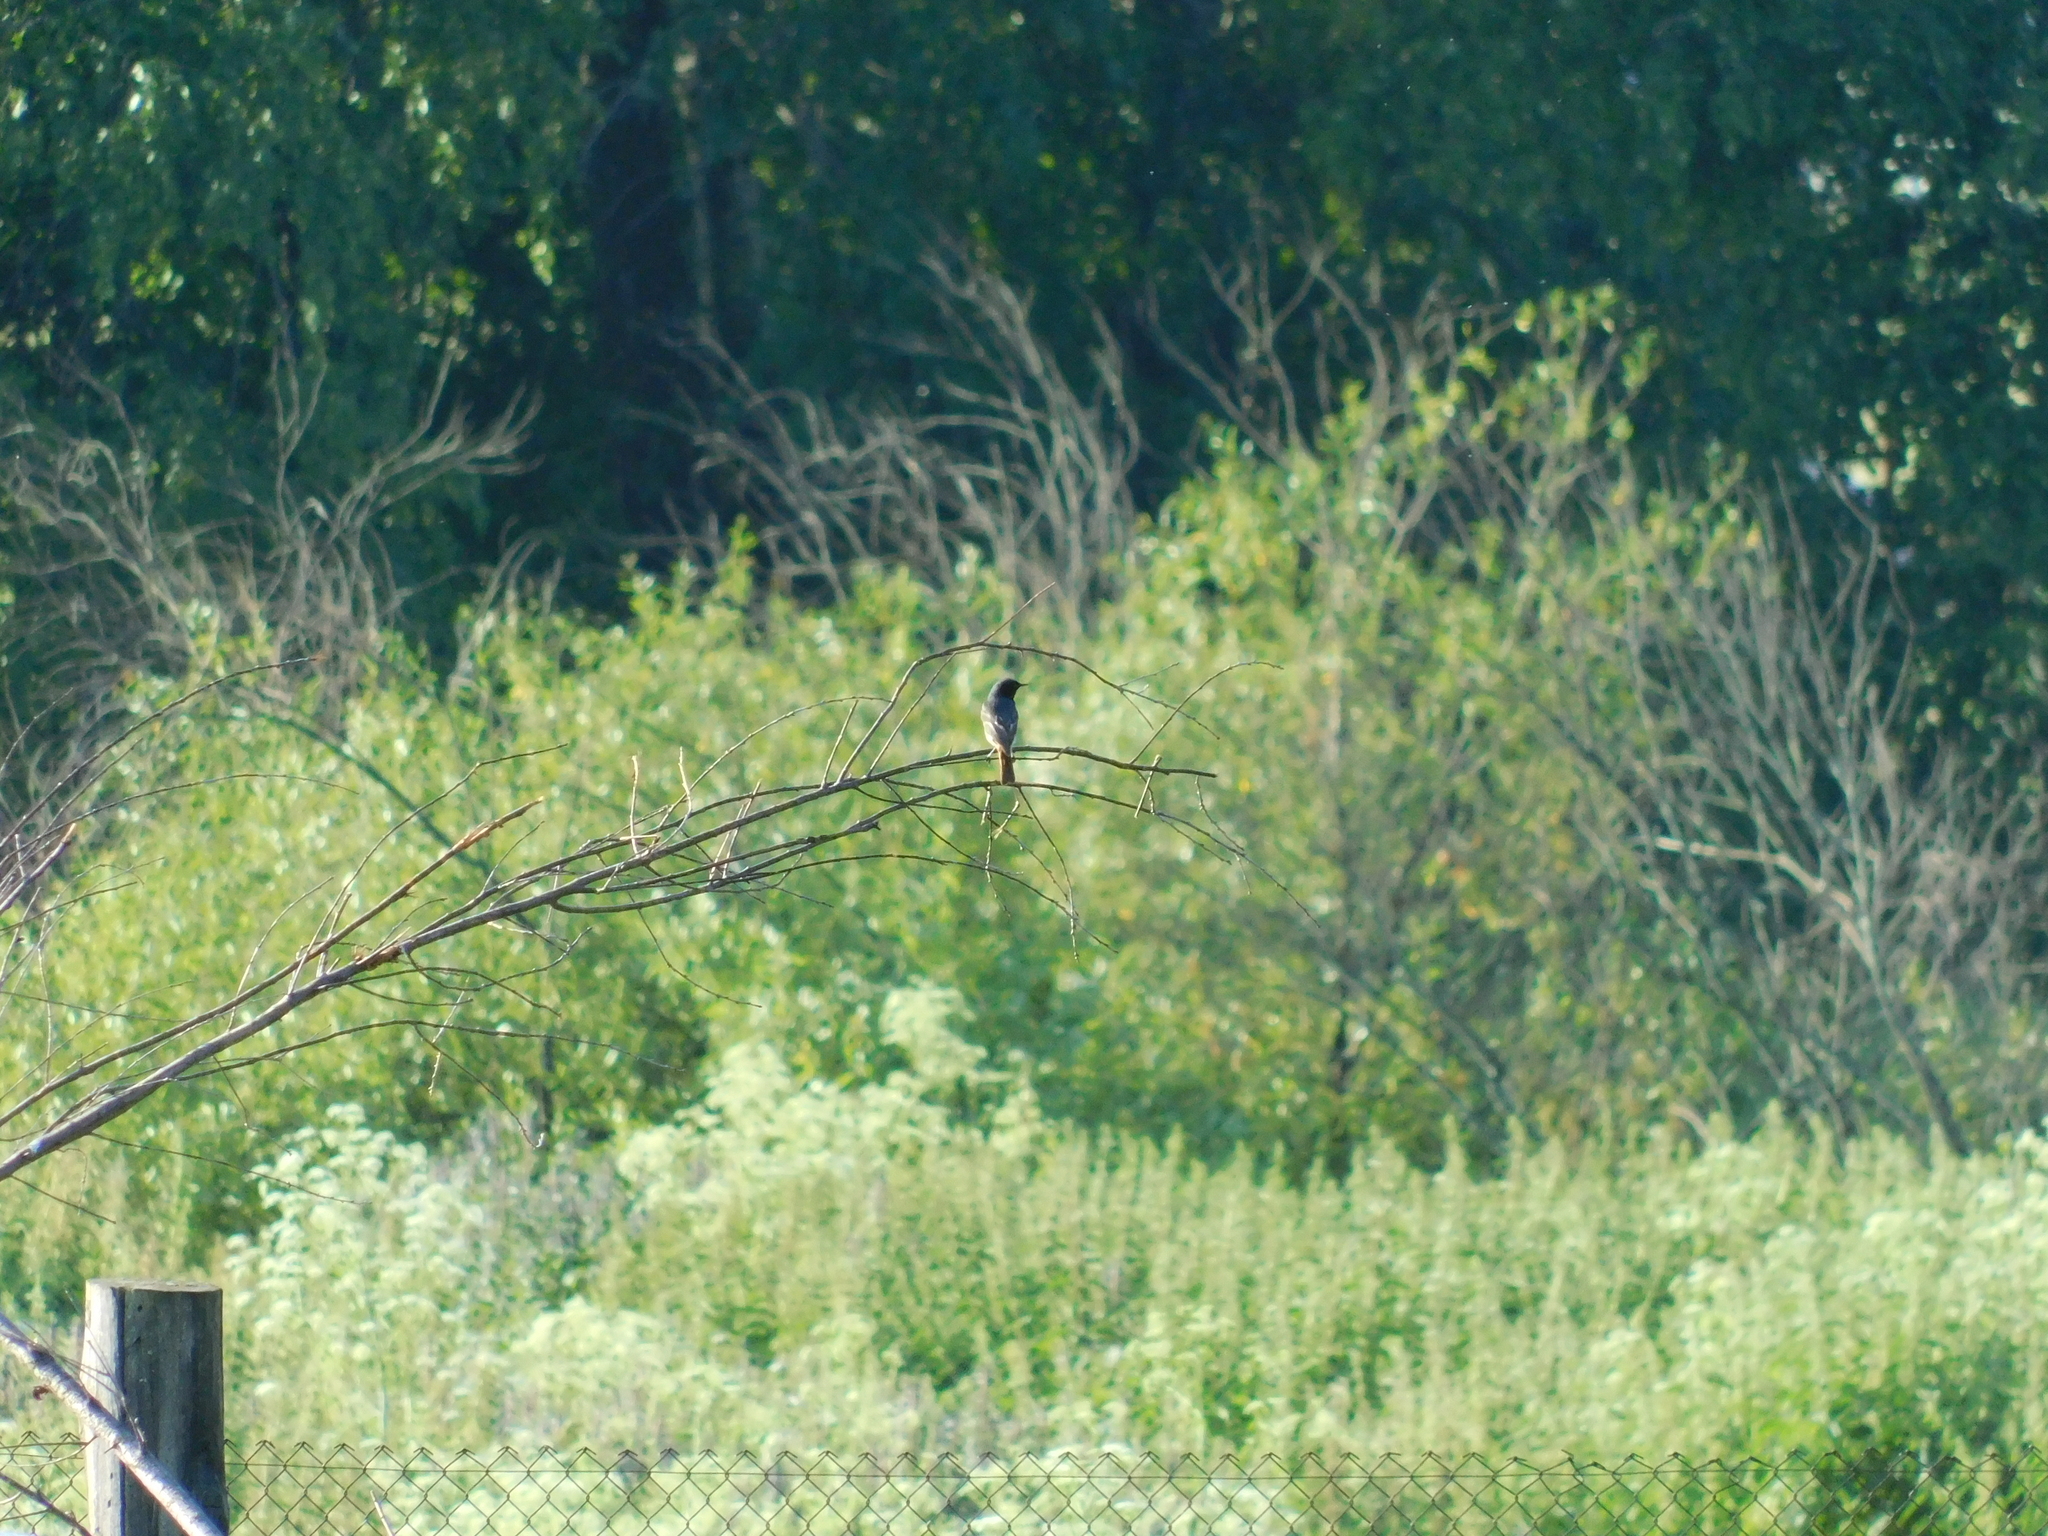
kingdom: Animalia
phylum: Chordata
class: Aves
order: Passeriformes
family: Muscicapidae
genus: Phoenicurus
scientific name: Phoenicurus ochruros
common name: Black redstart
